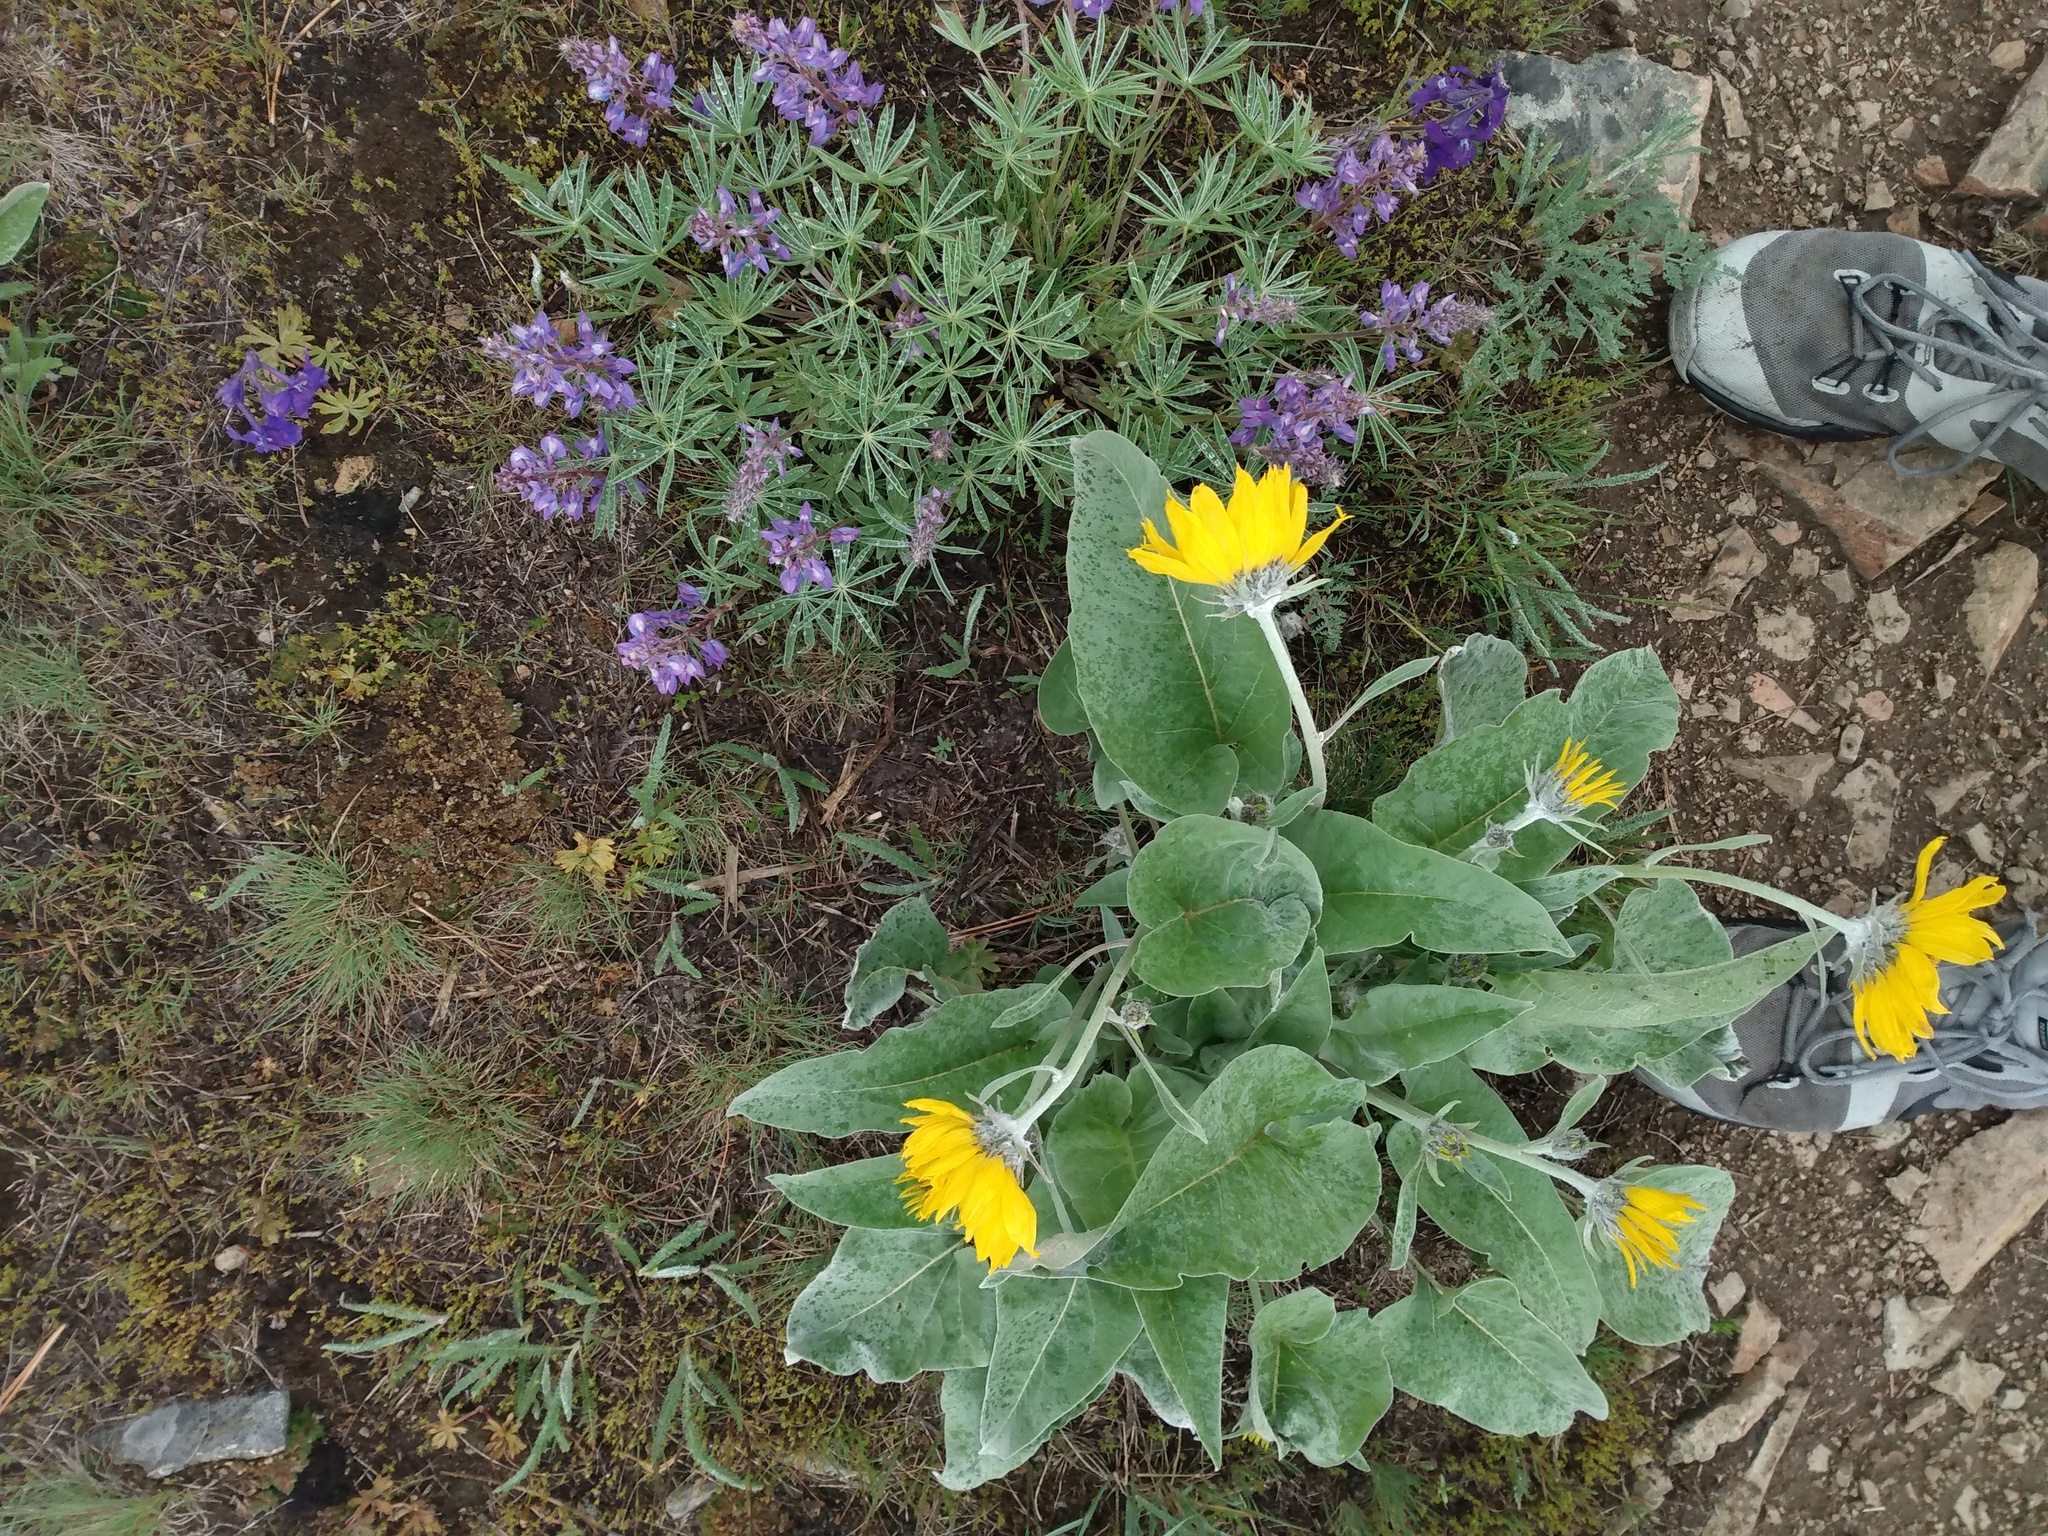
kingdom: Plantae
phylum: Tracheophyta
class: Magnoliopsida
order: Asterales
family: Asteraceae
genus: Wyethia
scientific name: Wyethia sagittata
